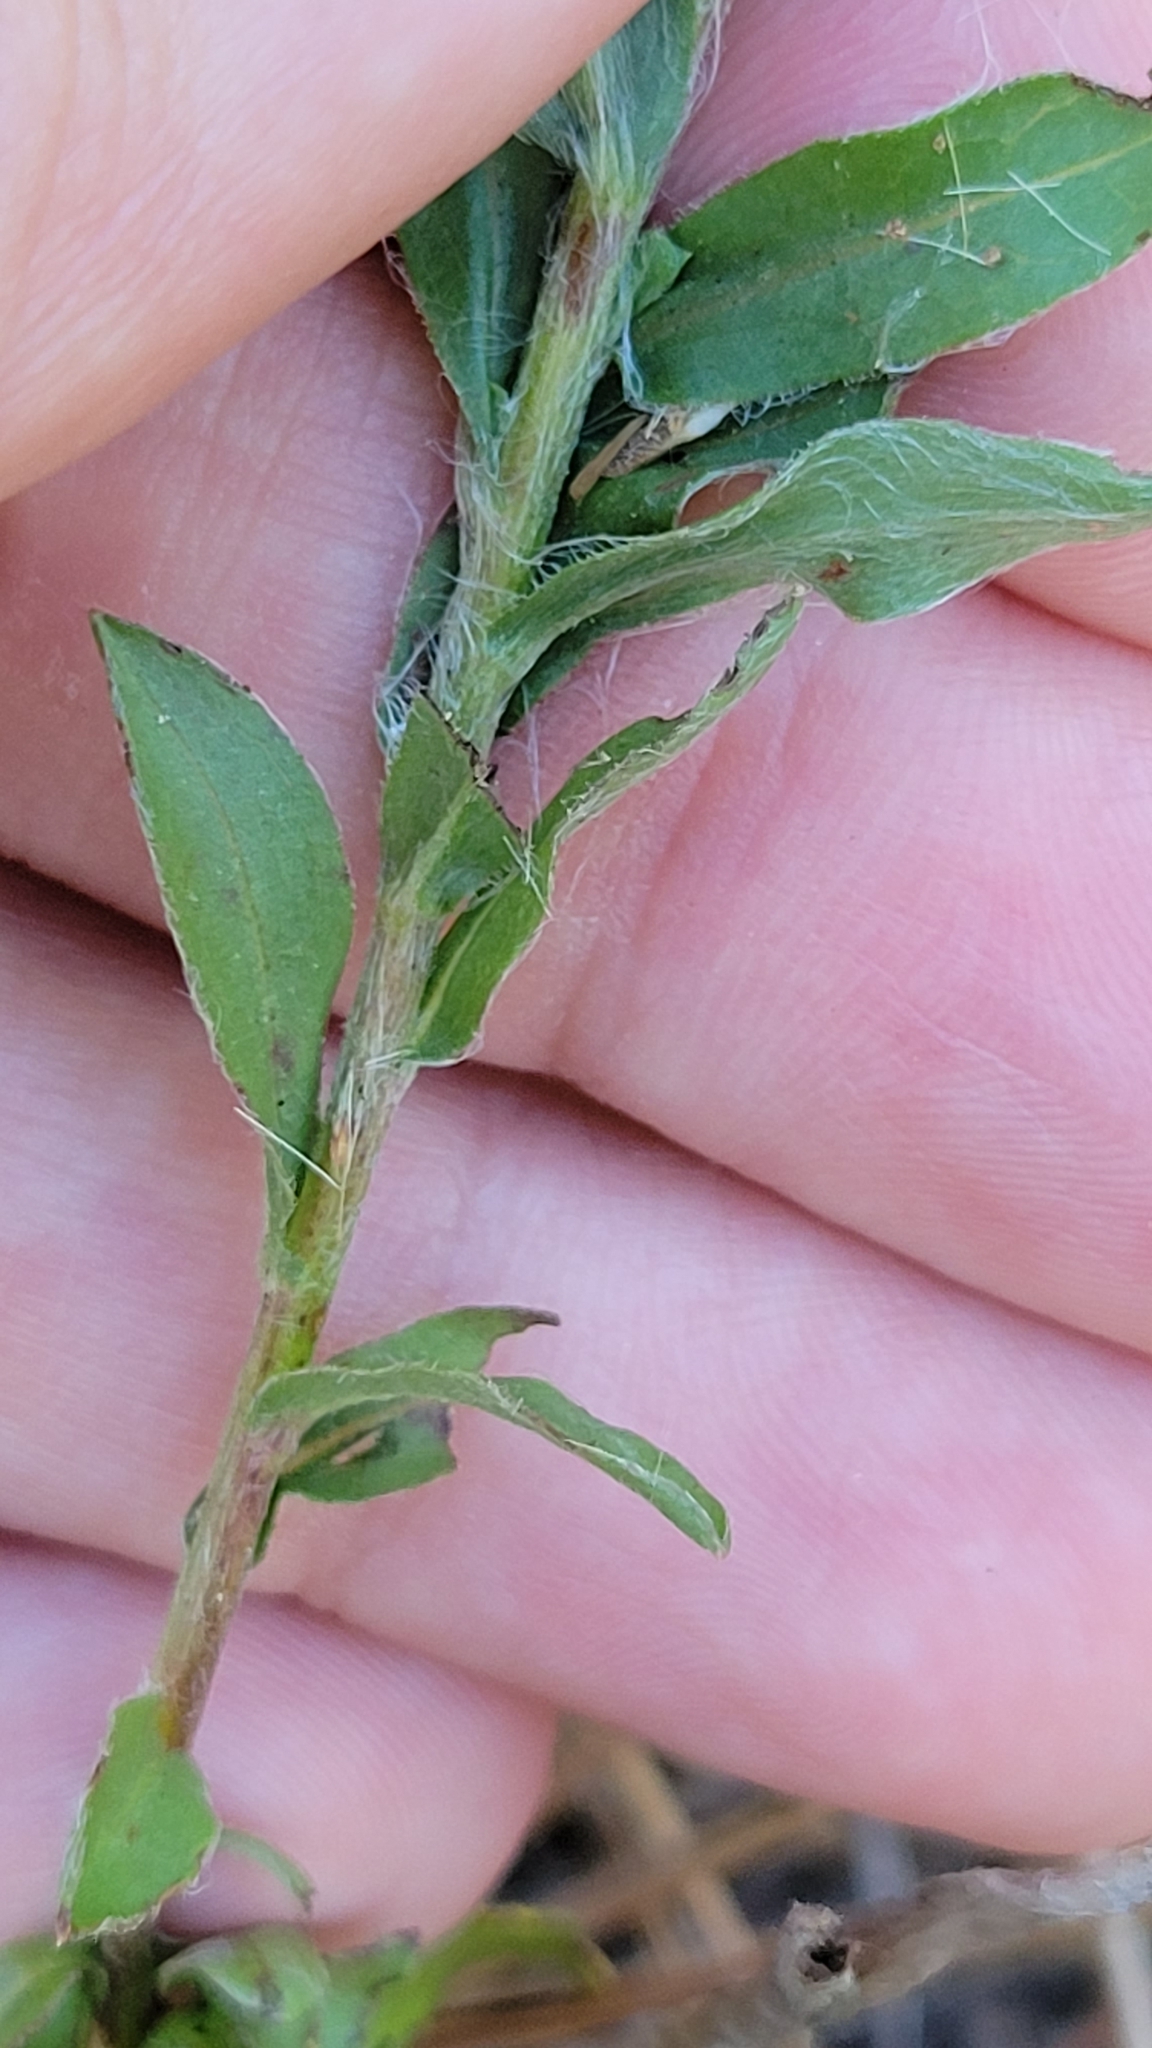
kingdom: Plantae
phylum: Tracheophyta
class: Magnoliopsida
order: Asterales
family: Asteraceae
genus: Chrysopsis
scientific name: Chrysopsis mariana
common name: Maryland golden-aster
